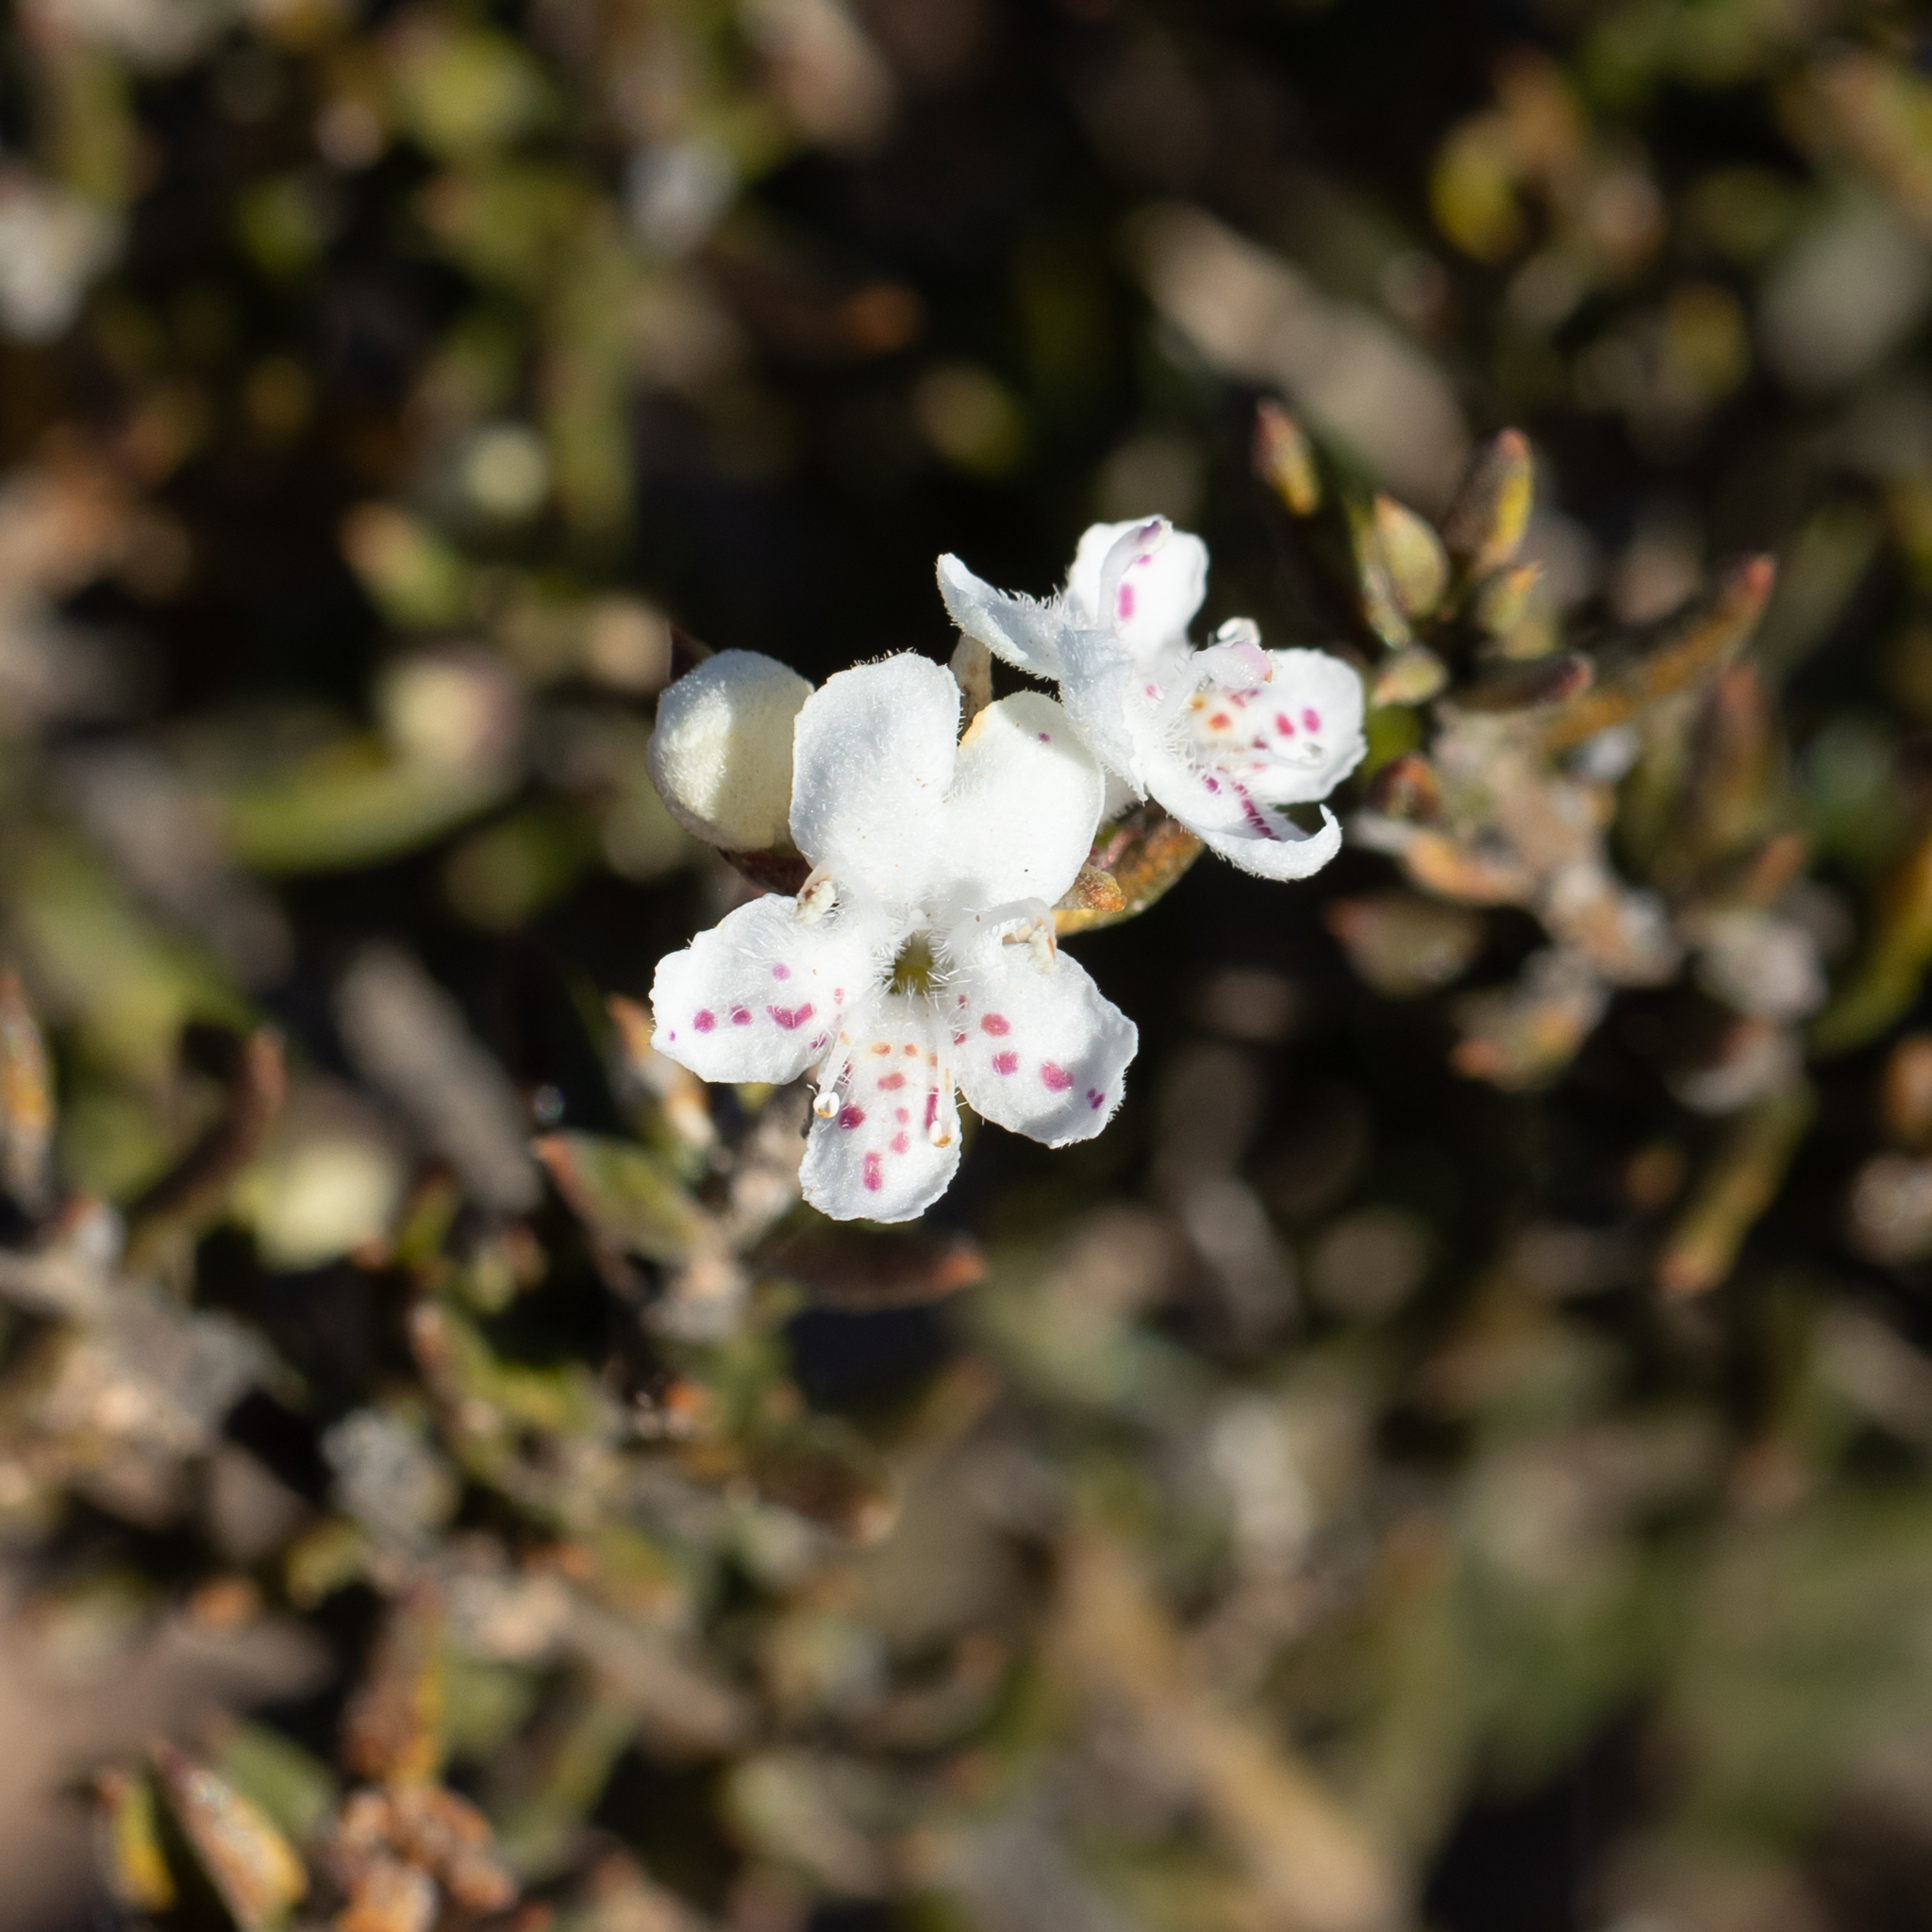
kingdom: Plantae
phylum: Tracheophyta
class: Magnoliopsida
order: Lamiales
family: Lamiaceae
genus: Westringia
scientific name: Westringia rigida
